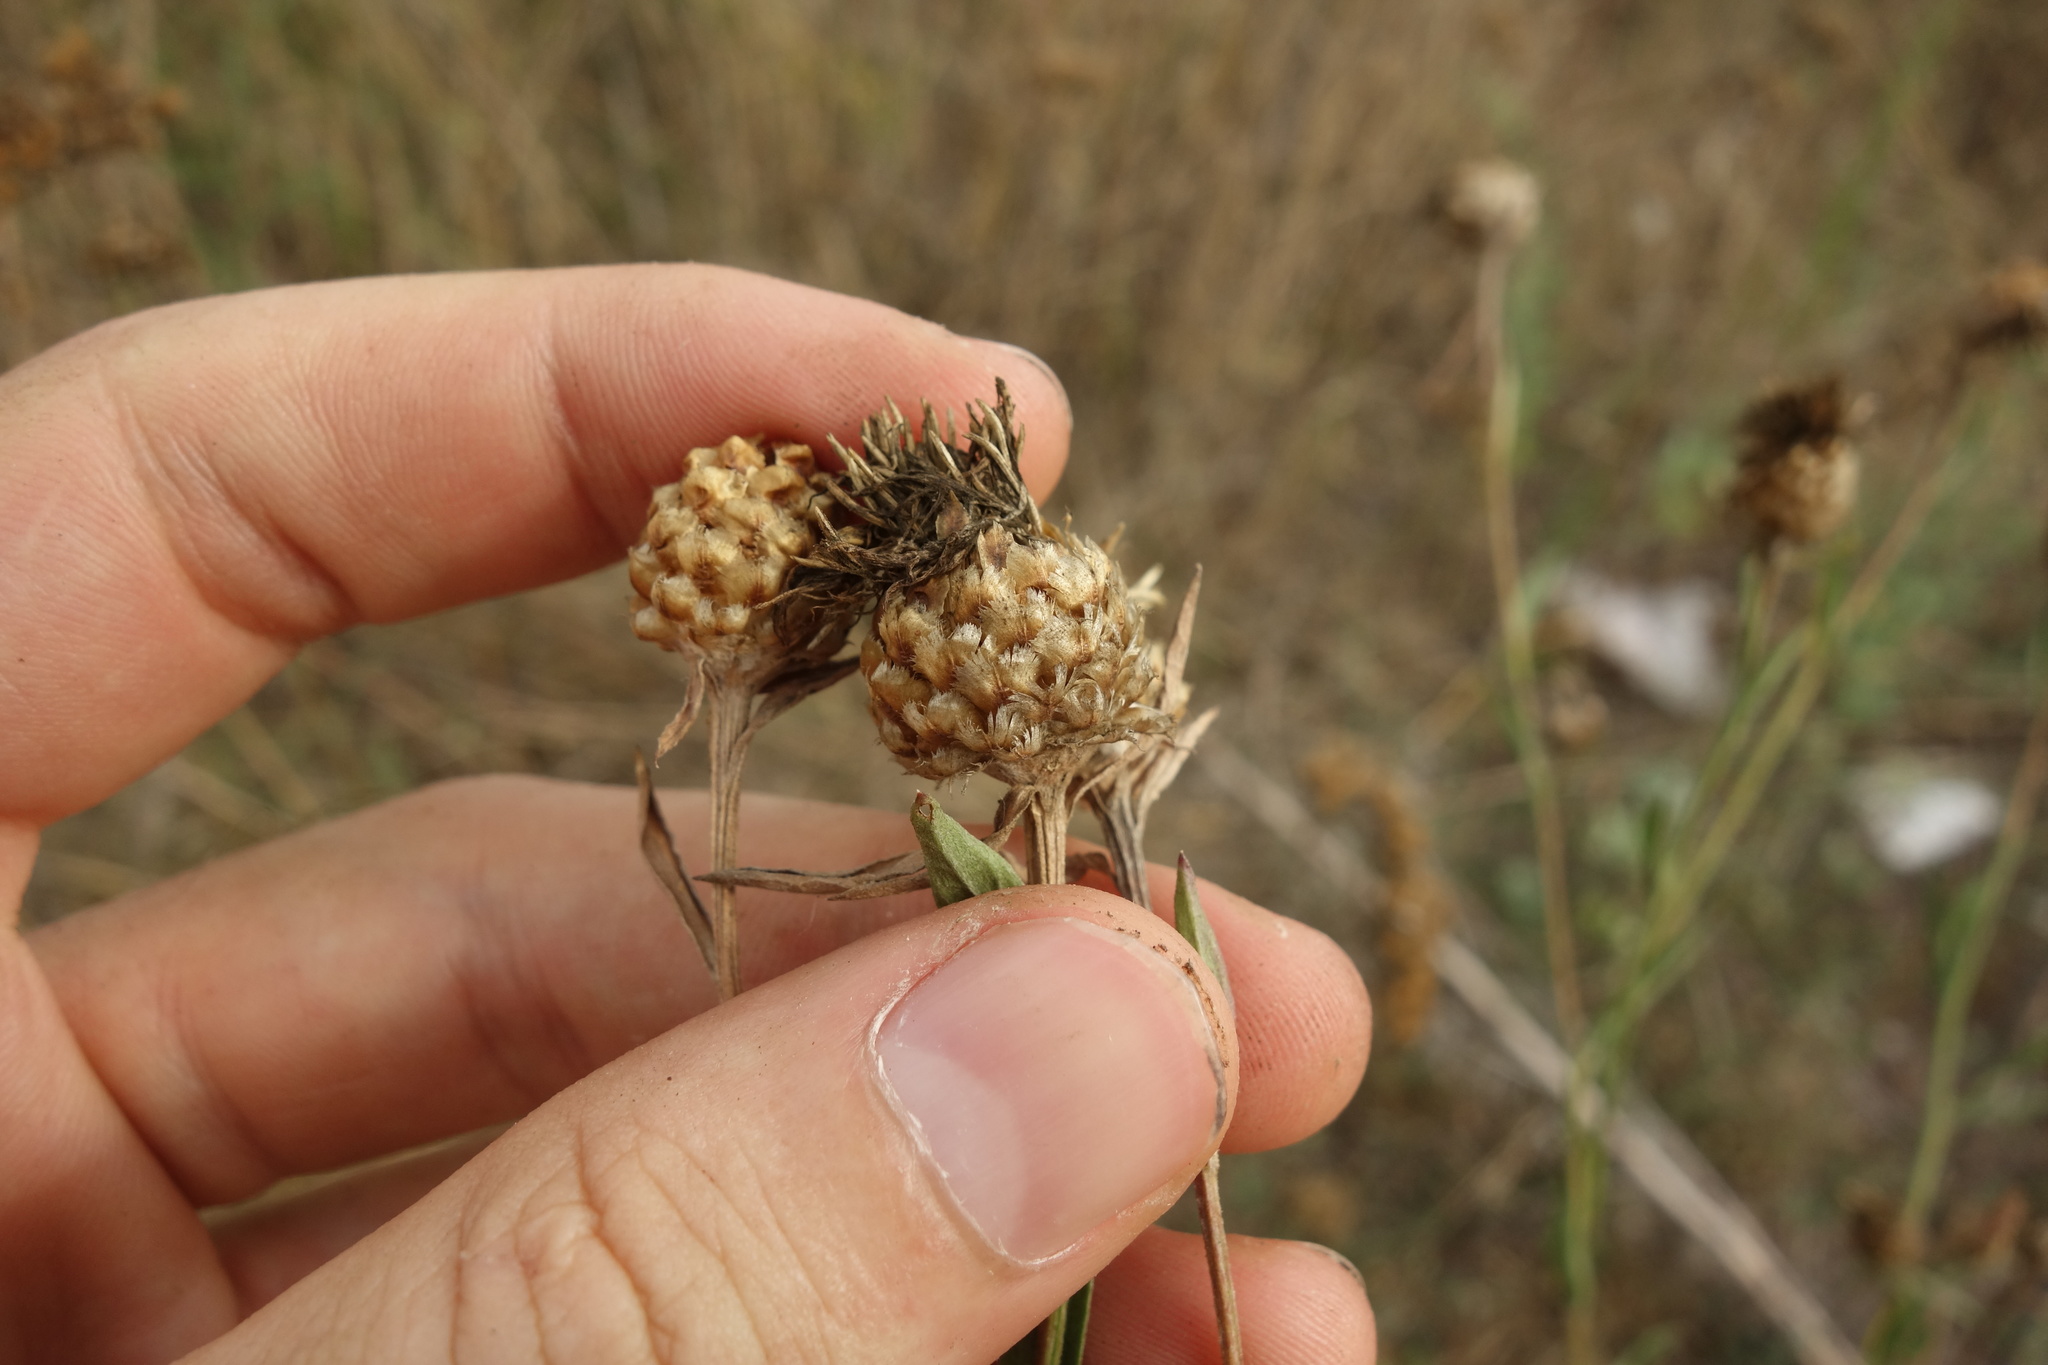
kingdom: Plantae
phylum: Tracheophyta
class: Magnoliopsida
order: Asterales
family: Asteraceae
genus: Centaurea
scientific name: Centaurea jacea
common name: Brown knapweed
